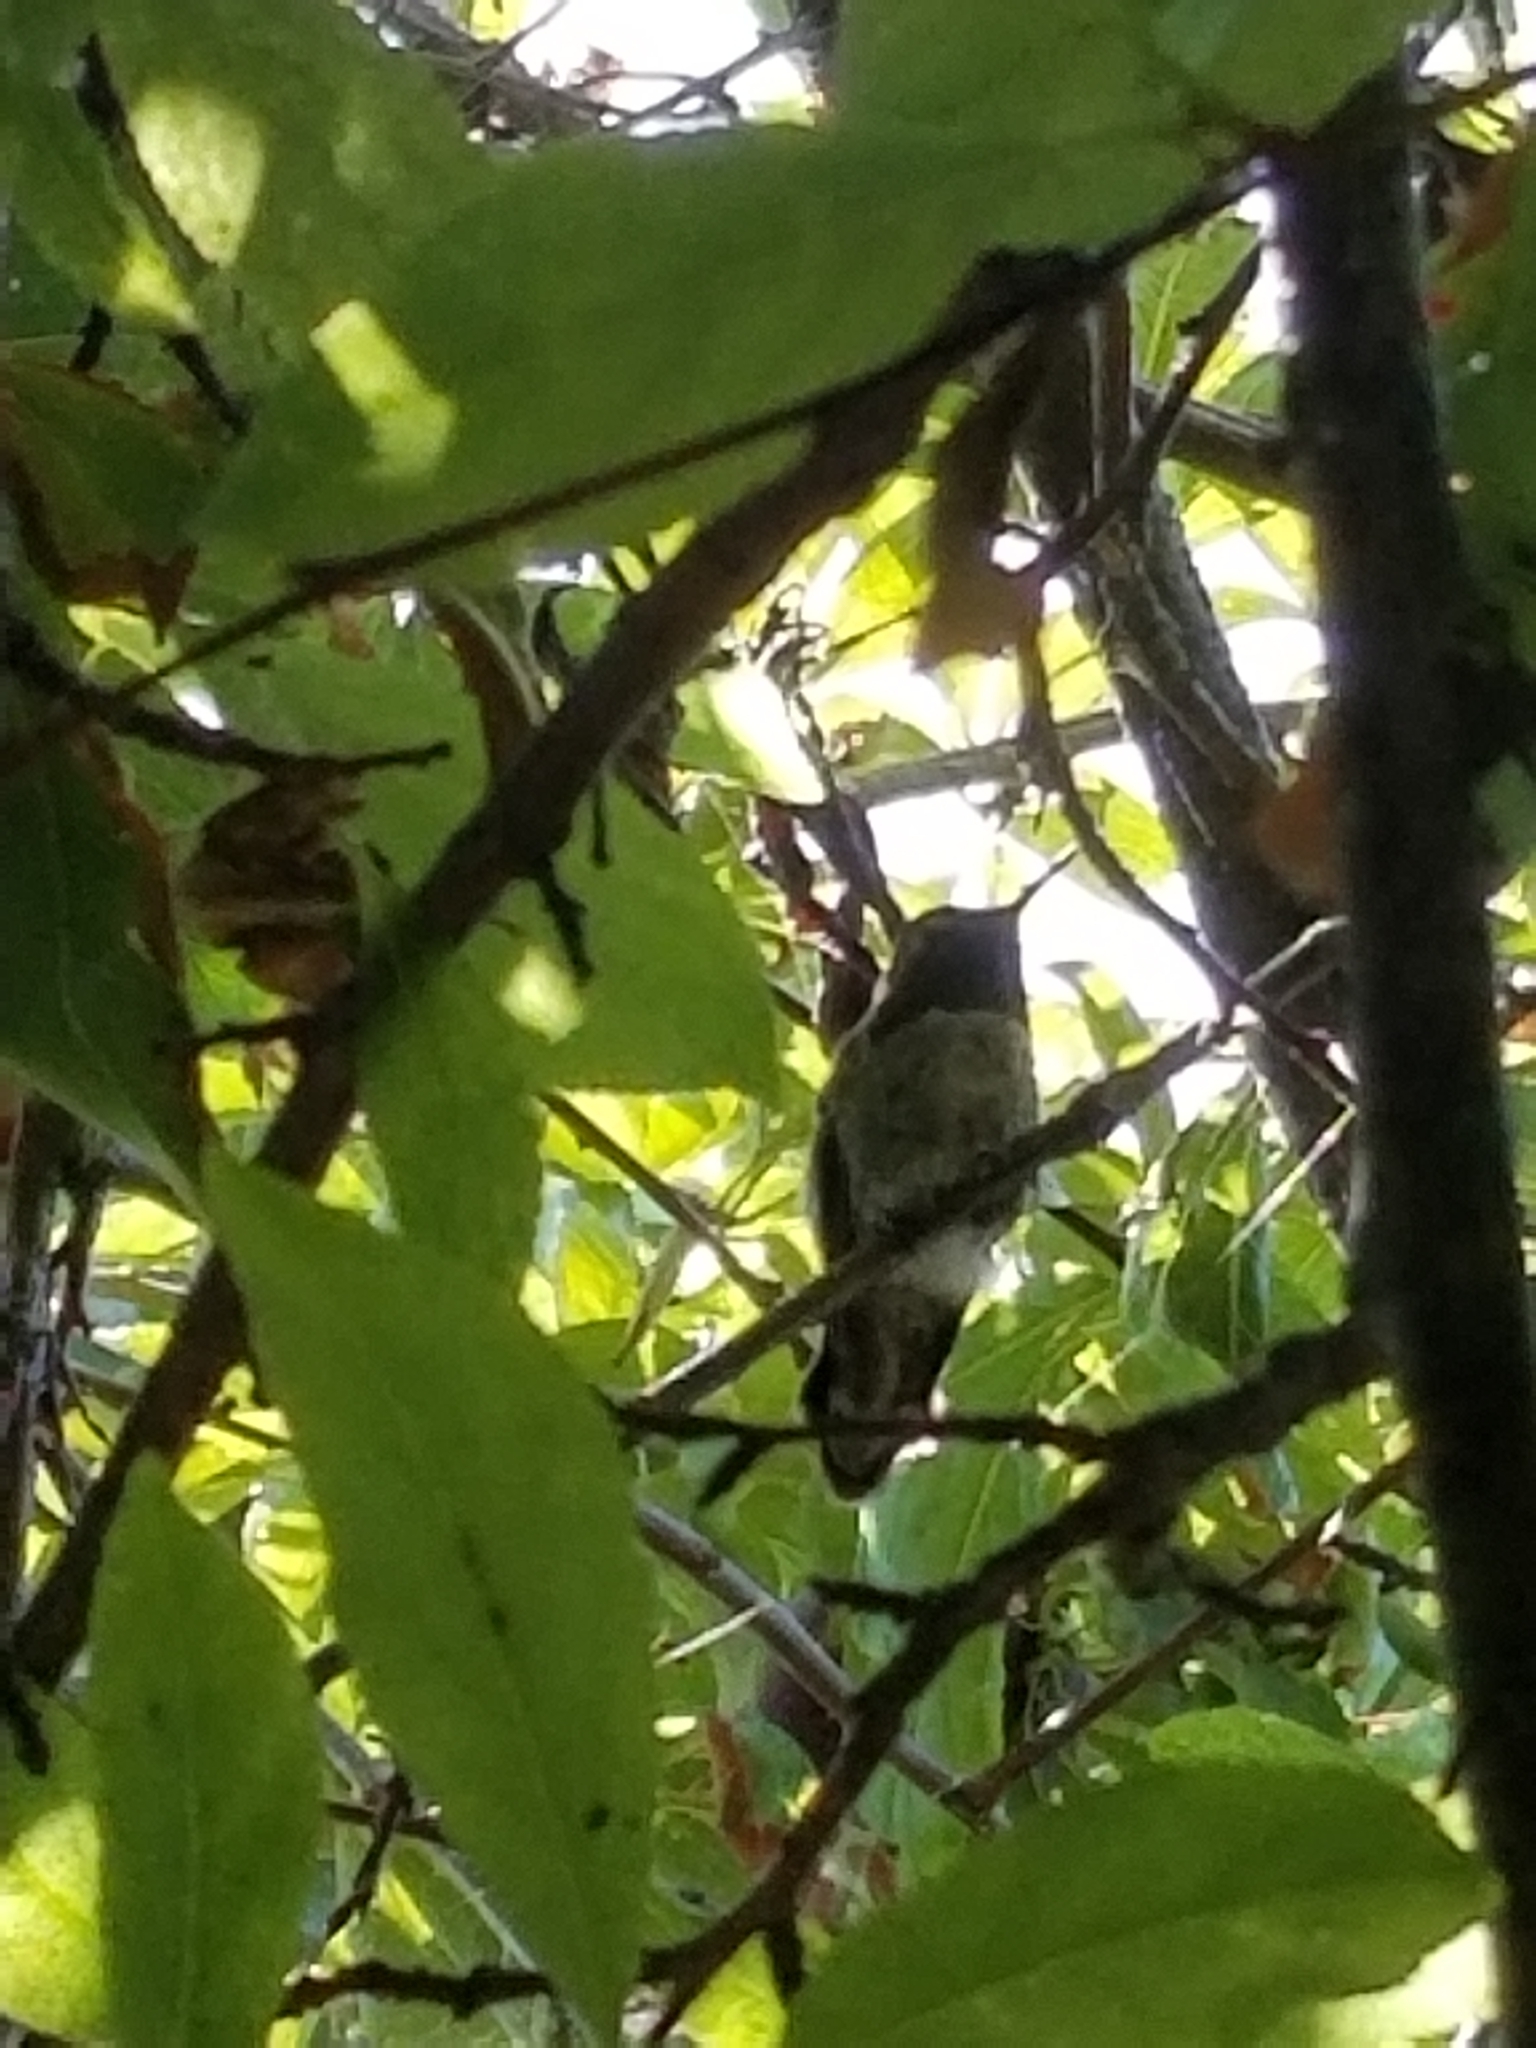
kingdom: Animalia
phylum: Chordata
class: Aves
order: Apodiformes
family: Trochilidae
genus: Calypte
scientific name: Calypte anna
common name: Anna's hummingbird
